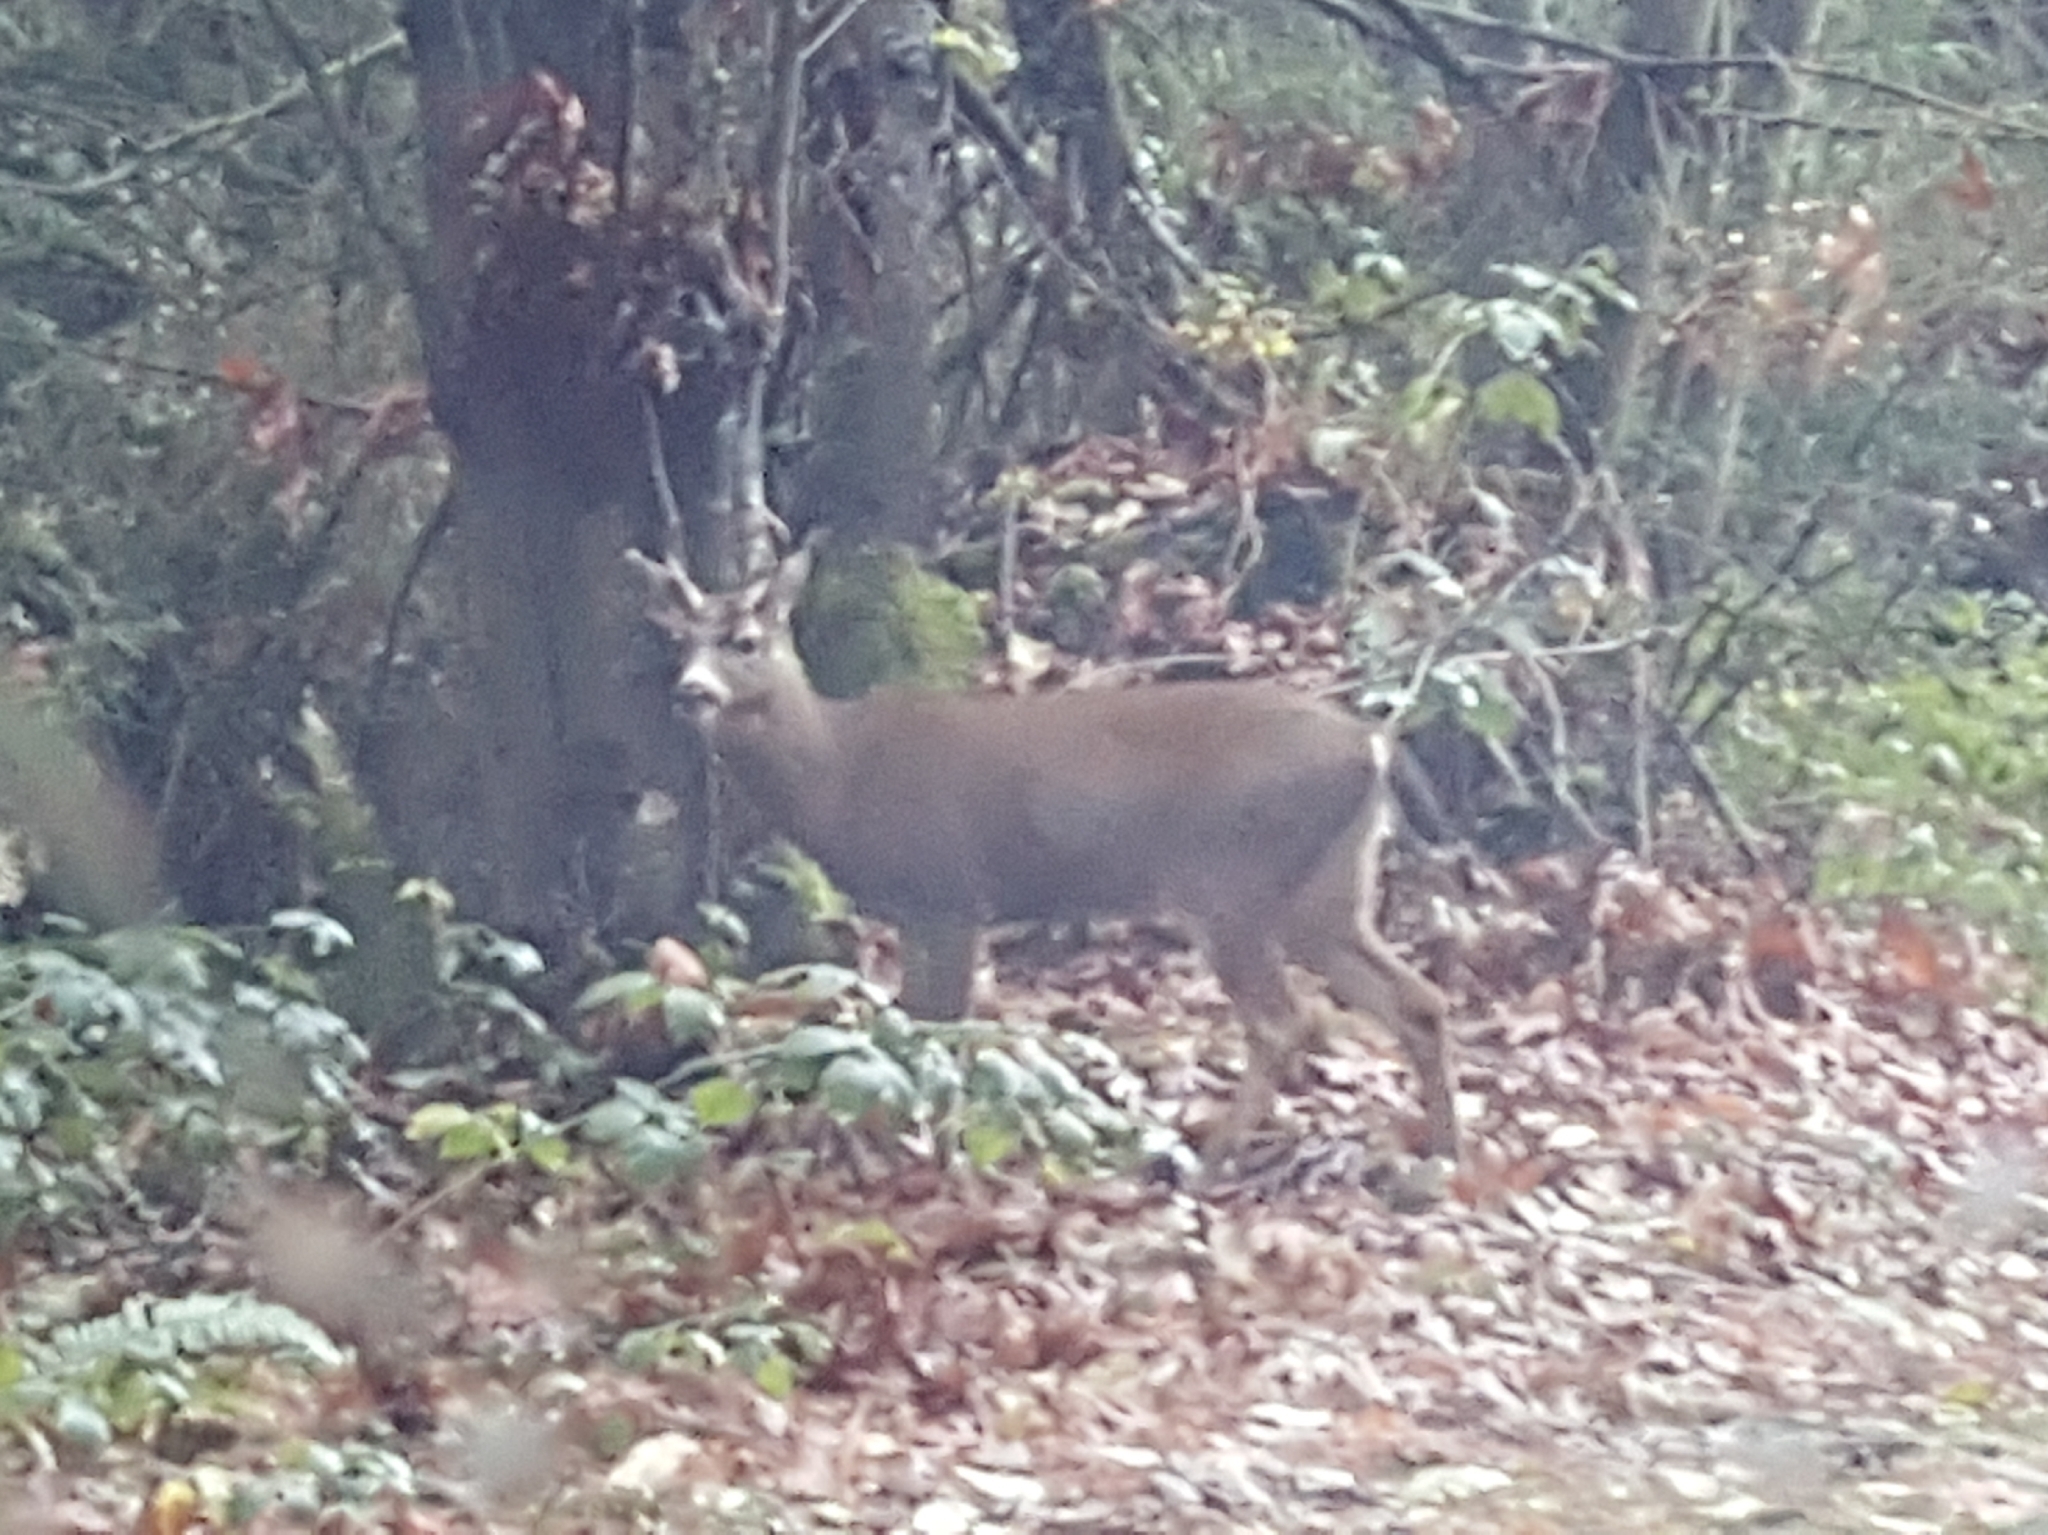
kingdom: Animalia
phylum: Chordata
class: Mammalia
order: Artiodactyla
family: Cervidae
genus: Odocoileus
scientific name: Odocoileus hemionus
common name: Mule deer
